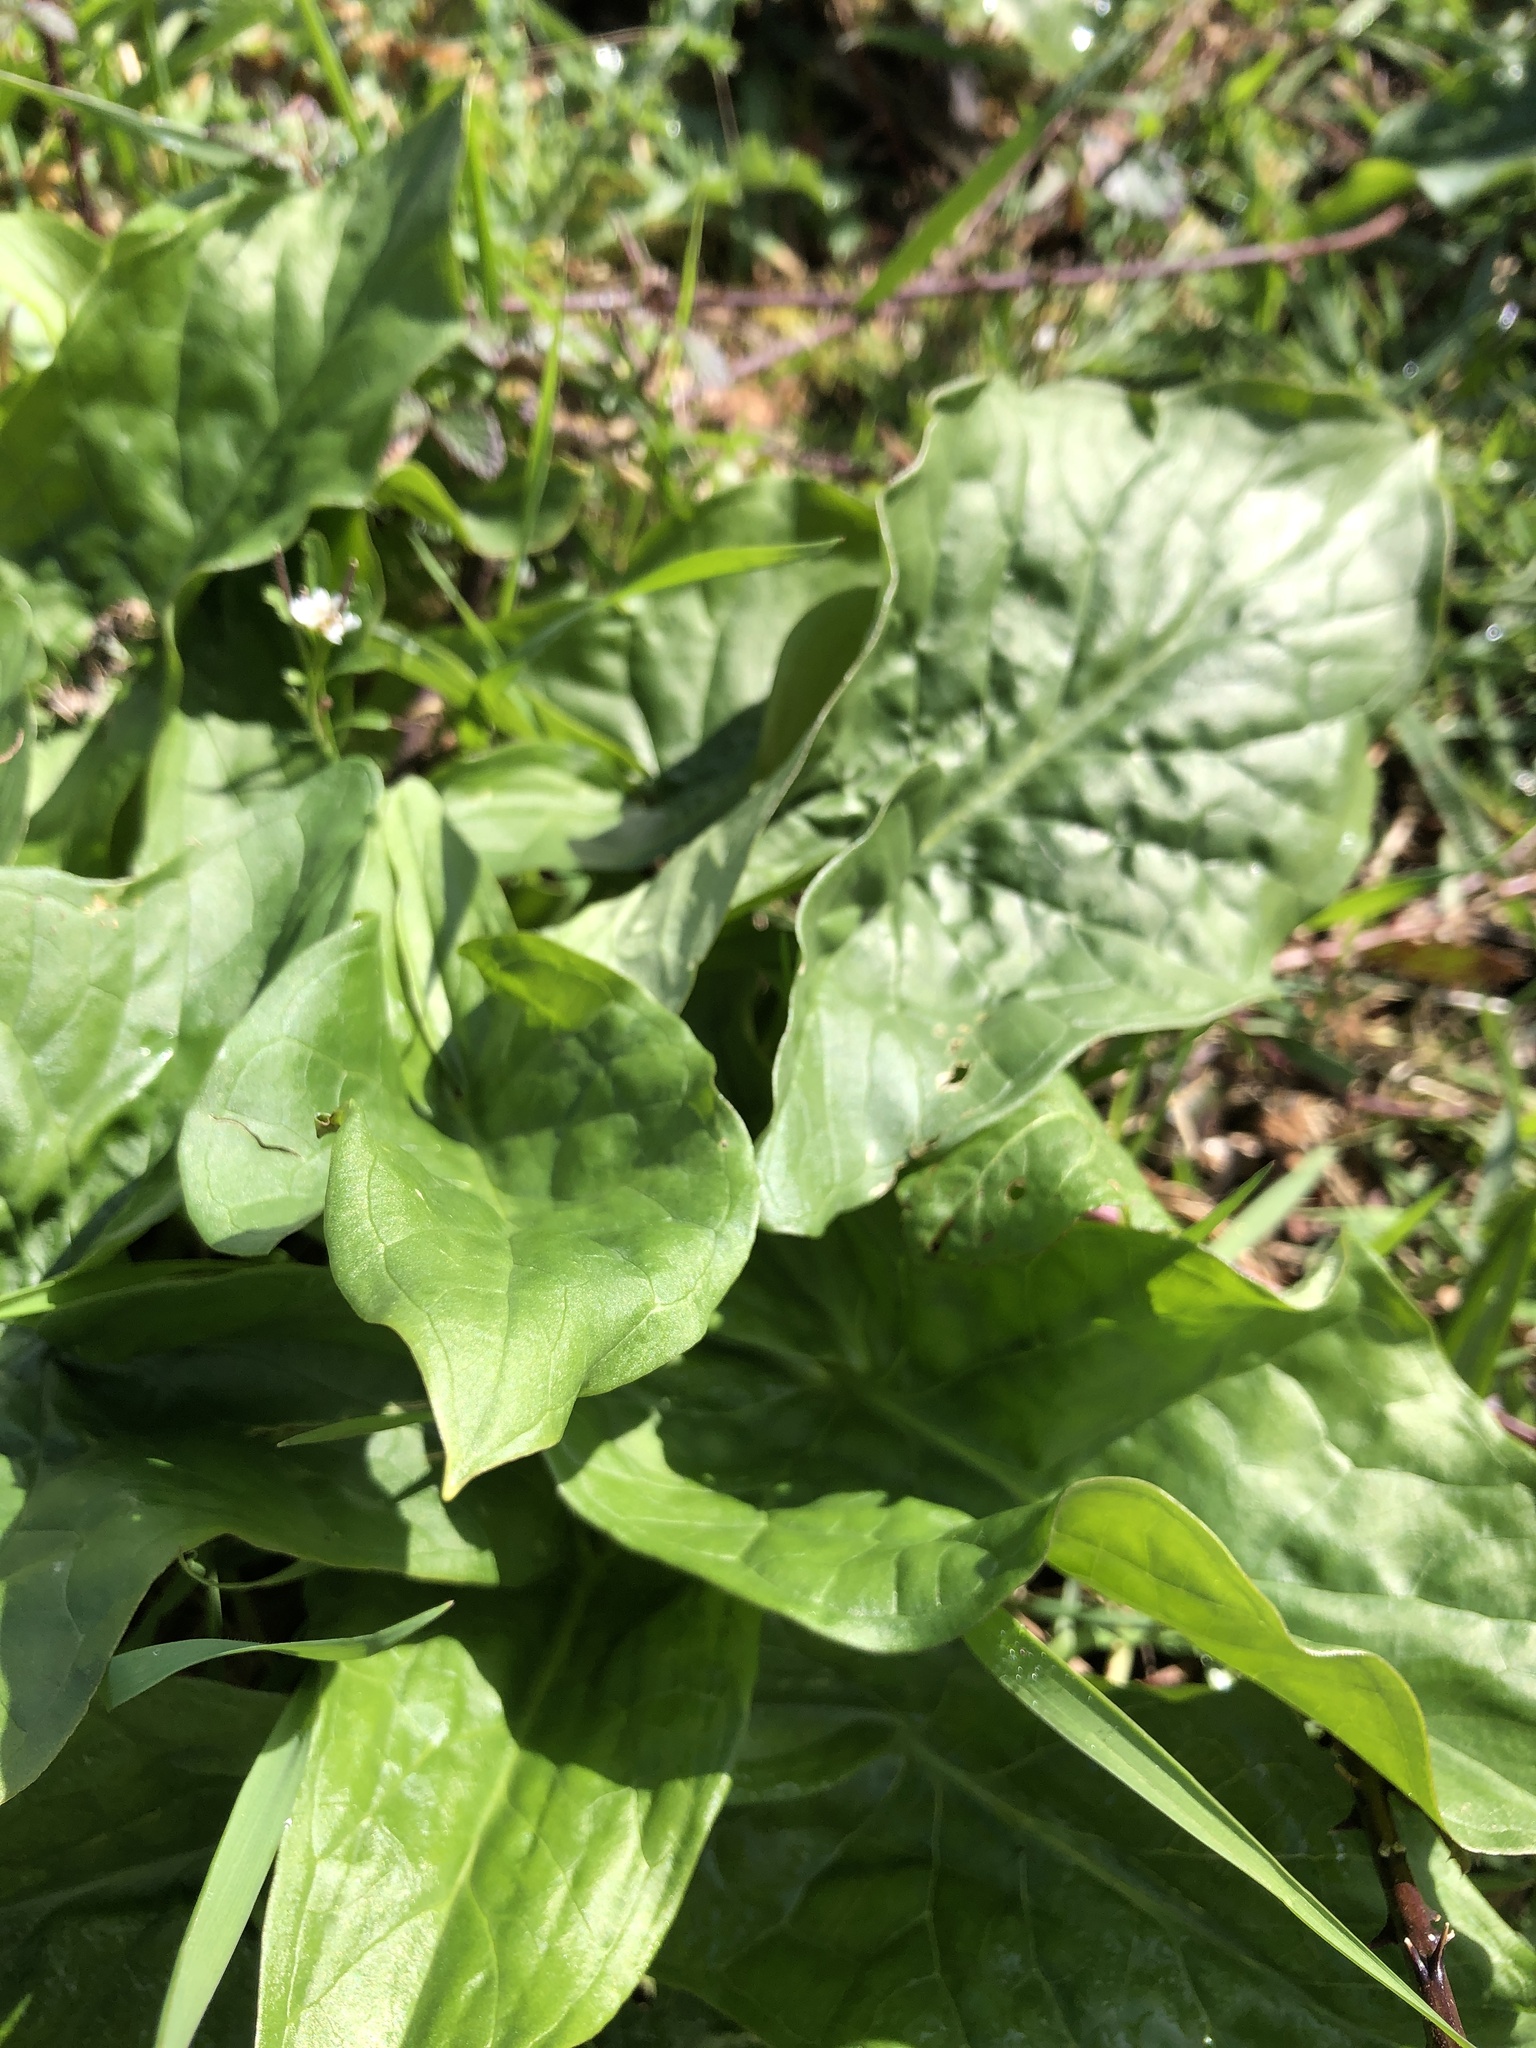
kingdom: Plantae
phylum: Tracheophyta
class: Liliopsida
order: Alismatales
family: Araceae
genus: Arum
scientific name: Arum maculatum
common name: Lords-and-ladies
